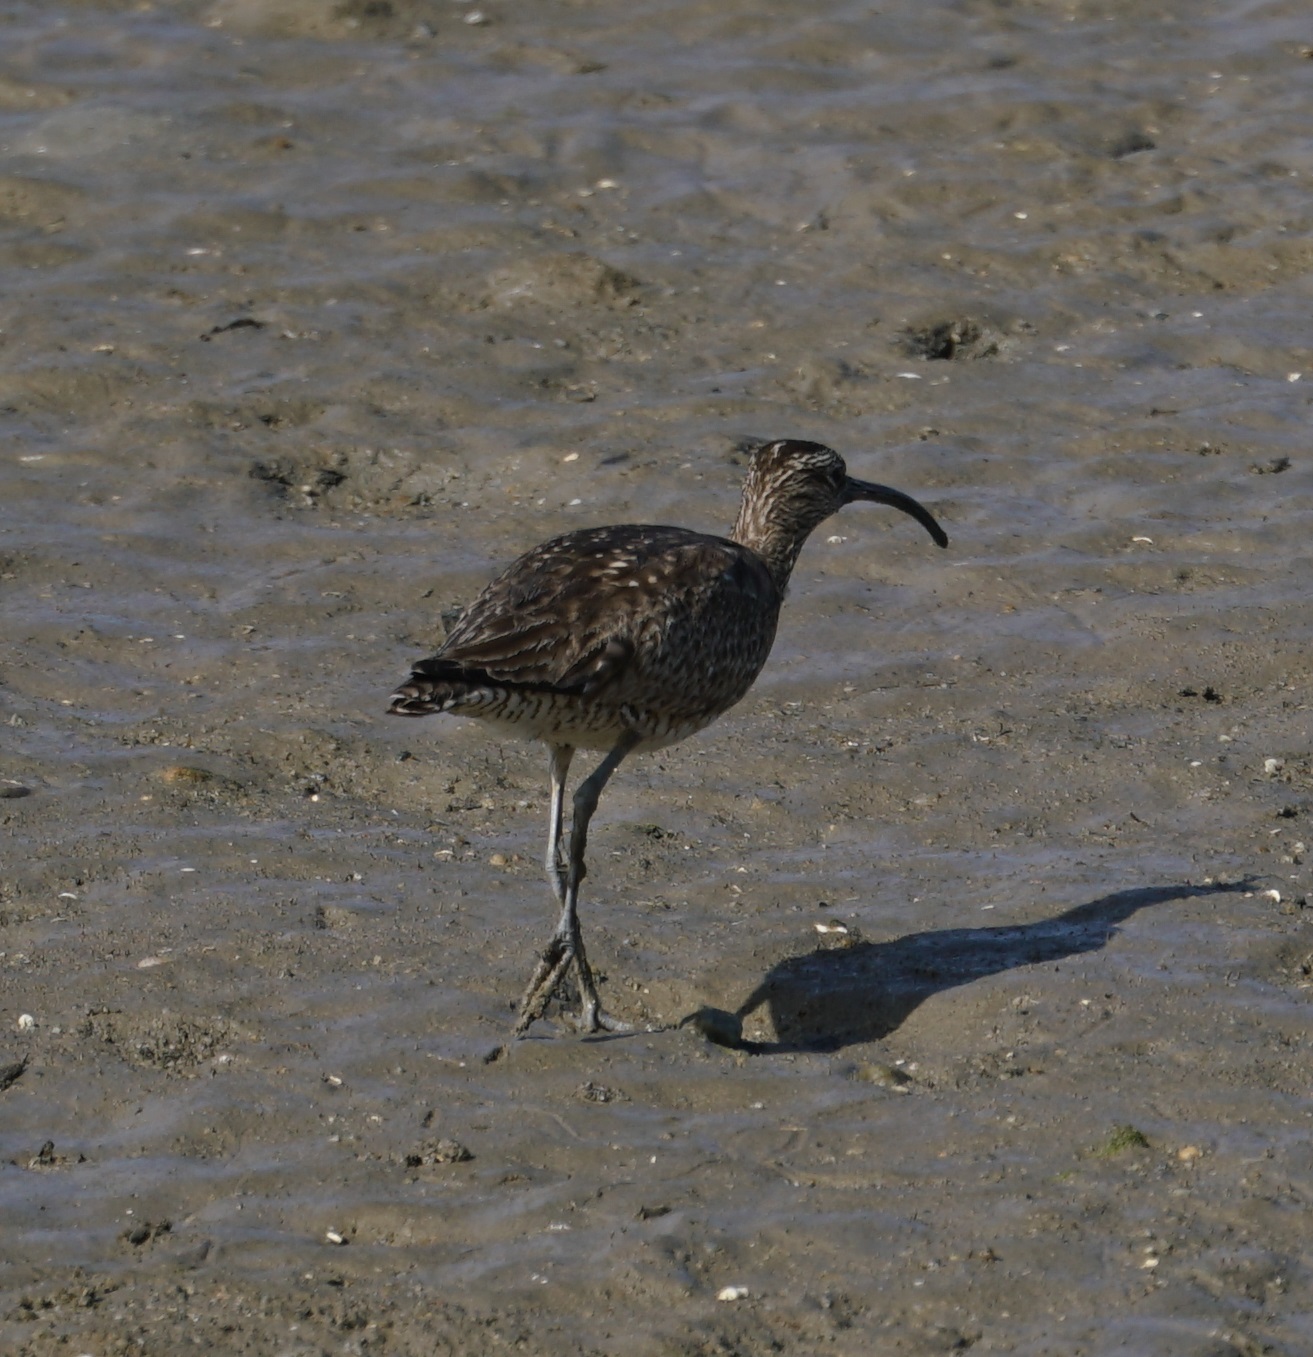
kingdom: Animalia
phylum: Chordata
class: Aves
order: Charadriiformes
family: Scolopacidae
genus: Numenius
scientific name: Numenius phaeopus
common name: Whimbrel
